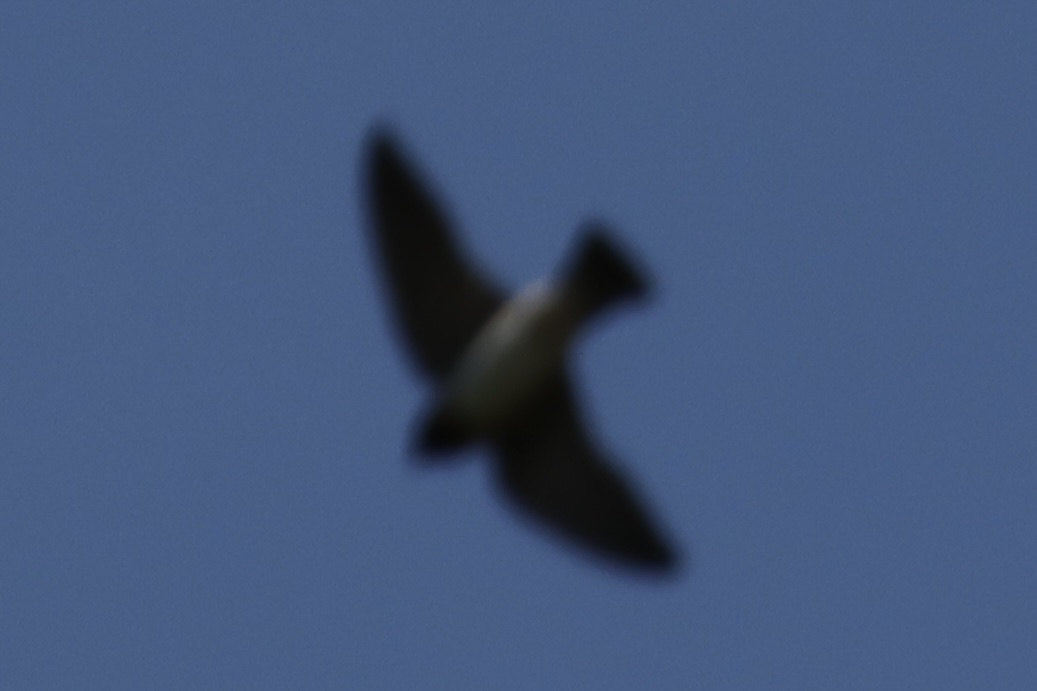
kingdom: Animalia
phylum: Chordata
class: Aves
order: Passeriformes
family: Hirundinidae
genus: Petrochelidon
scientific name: Petrochelidon pyrrhonota
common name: American cliff swallow
